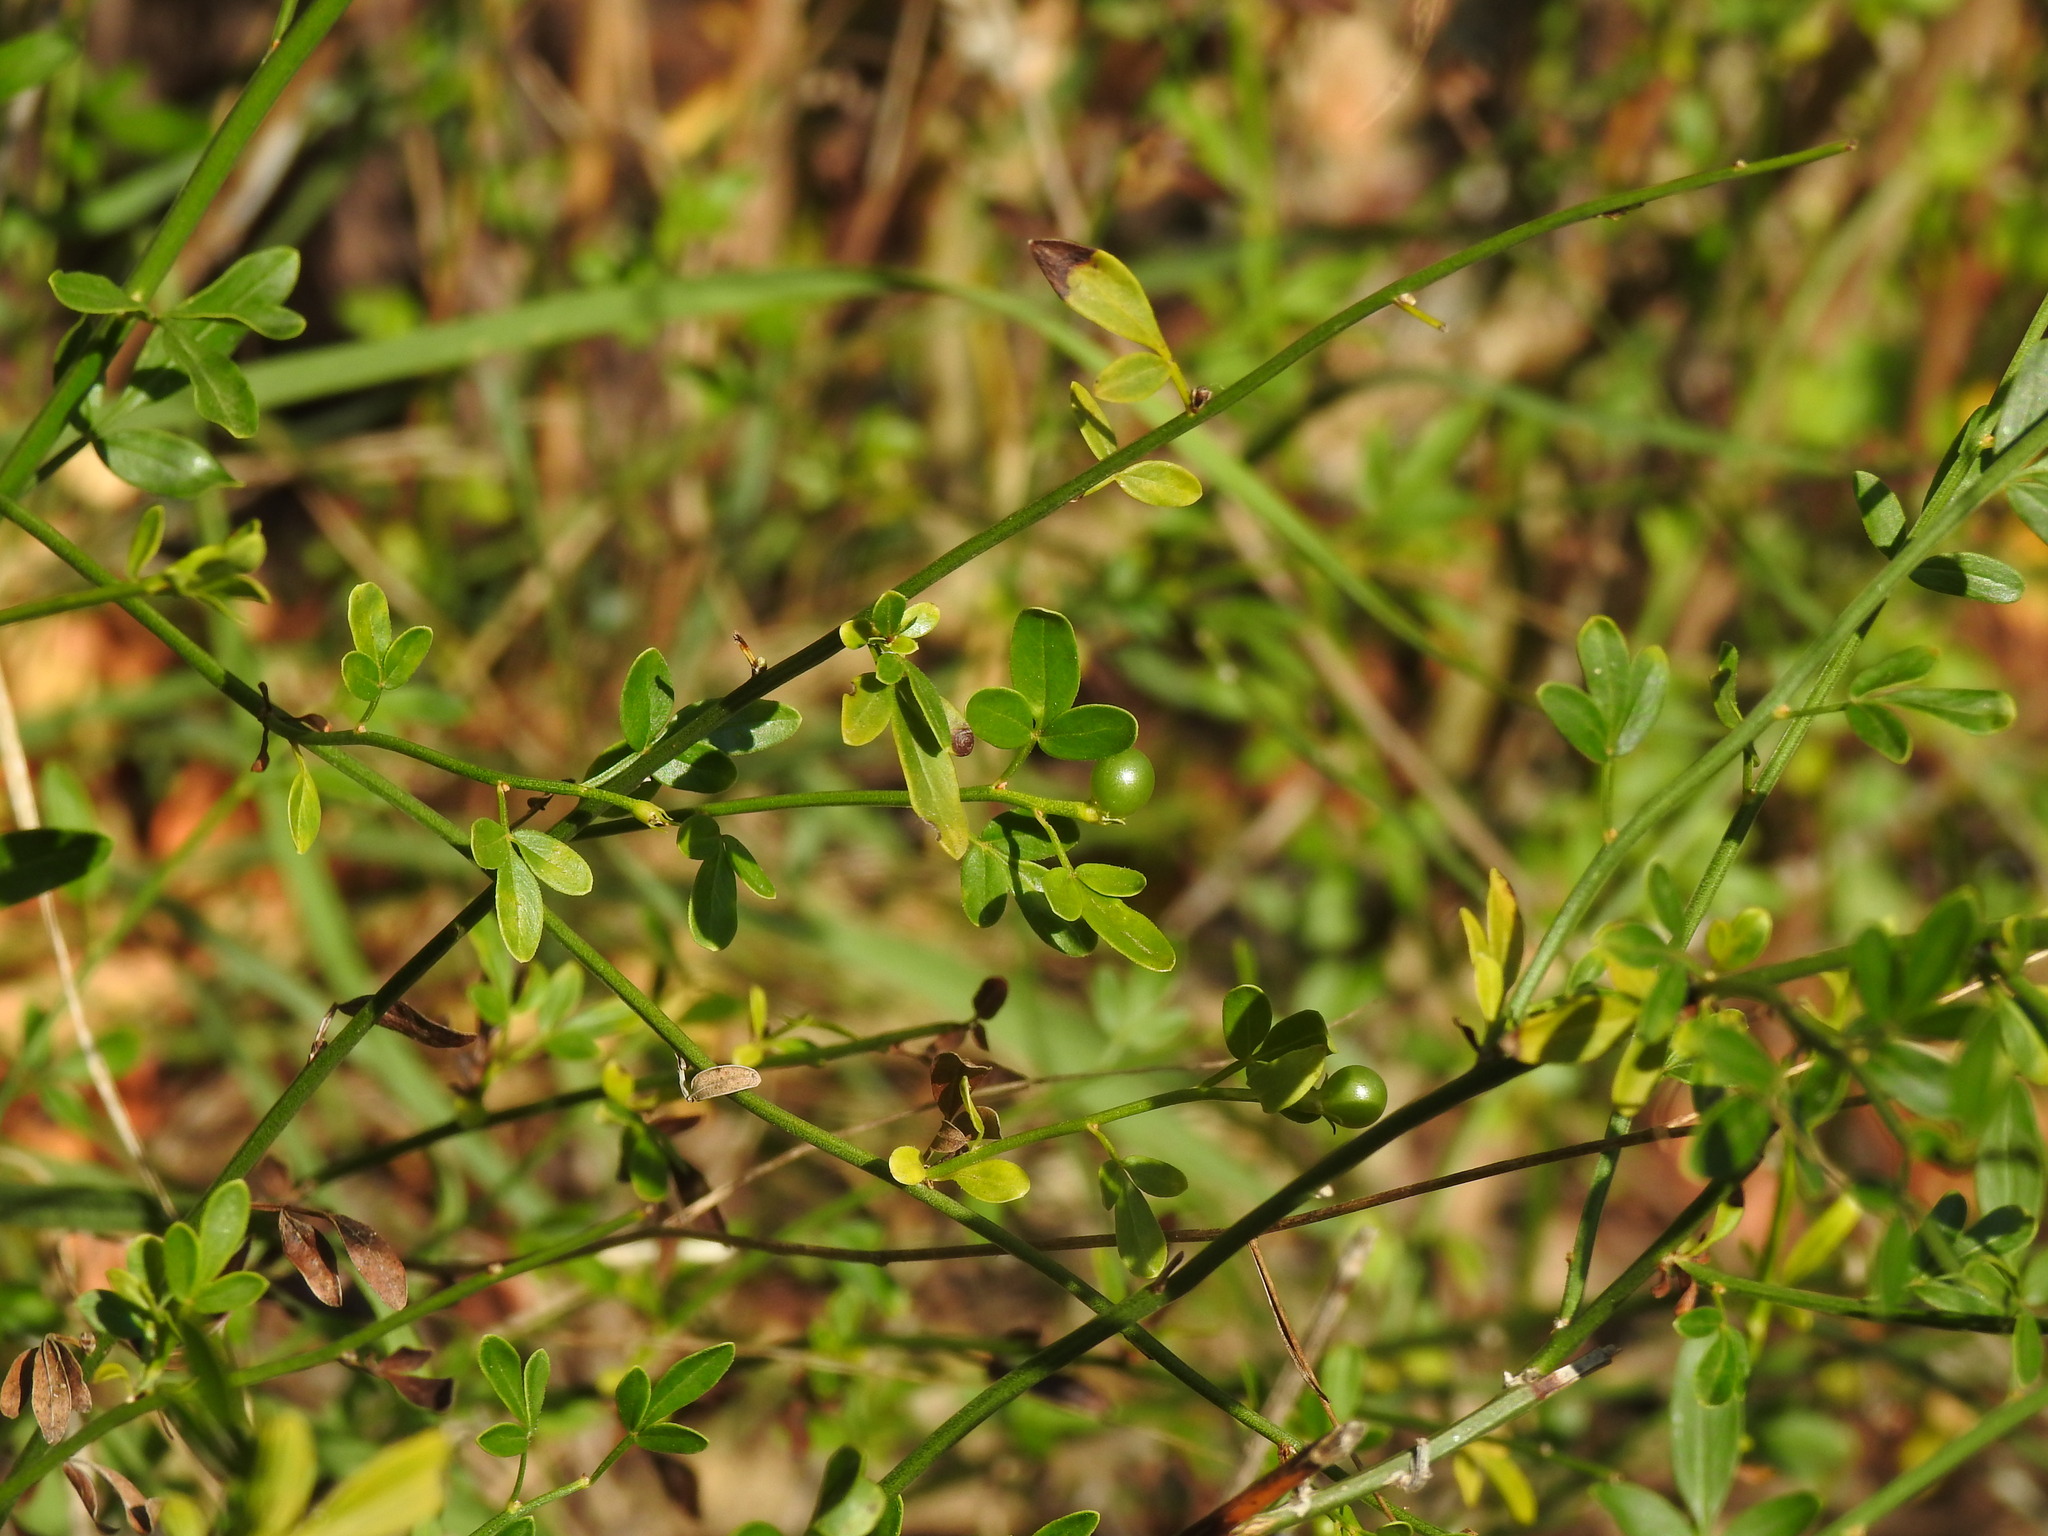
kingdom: Plantae
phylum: Tracheophyta
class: Magnoliopsida
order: Lamiales
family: Oleaceae
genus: Chrysojasminum
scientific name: Chrysojasminum fruticans
